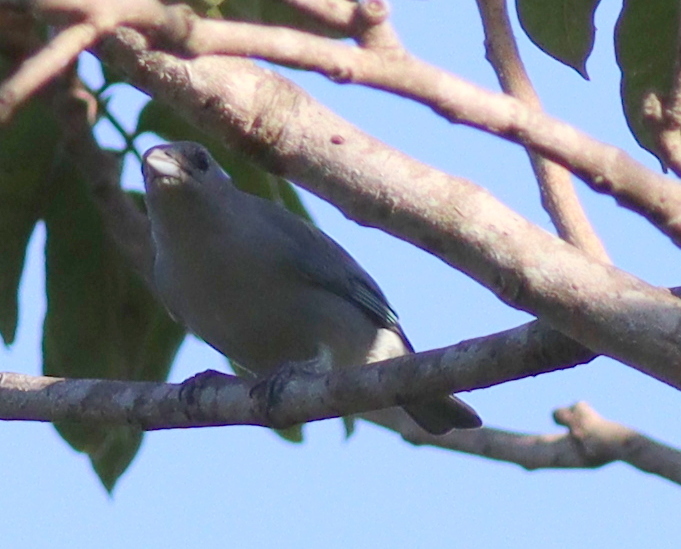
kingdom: Animalia
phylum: Chordata
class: Aves
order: Passeriformes
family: Thraupidae
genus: Thraupis
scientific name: Thraupis sayaca
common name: Sayaca tanager
